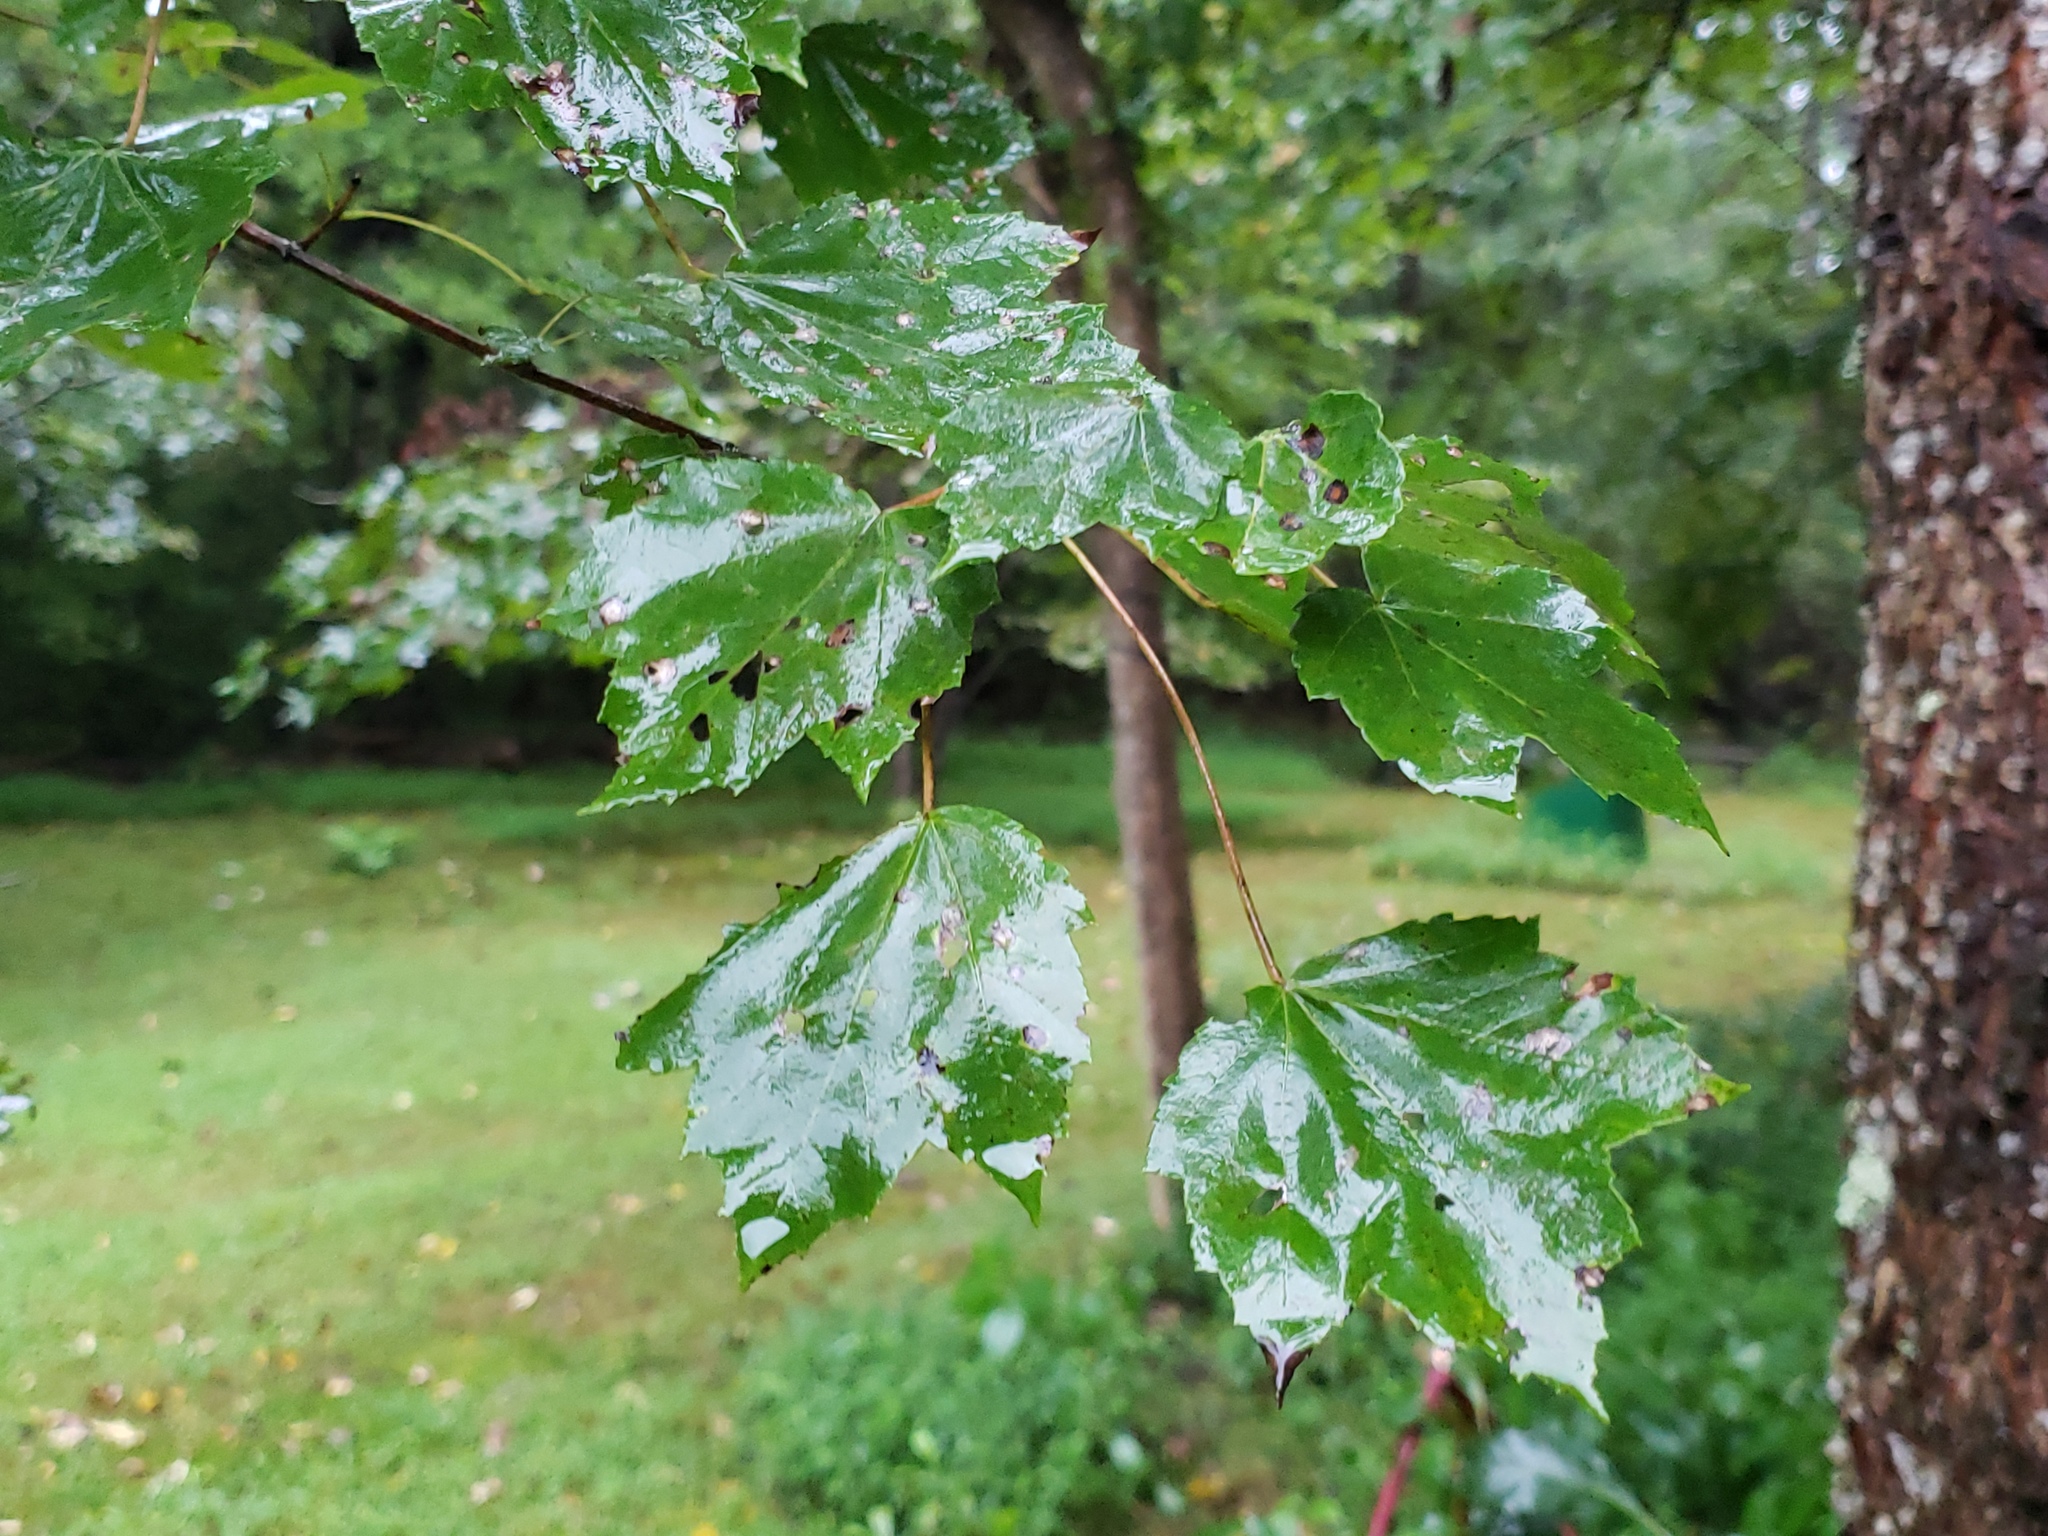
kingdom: Plantae
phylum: Tracheophyta
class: Magnoliopsida
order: Sapindales
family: Sapindaceae
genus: Acer
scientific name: Acer rubrum
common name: Red maple
